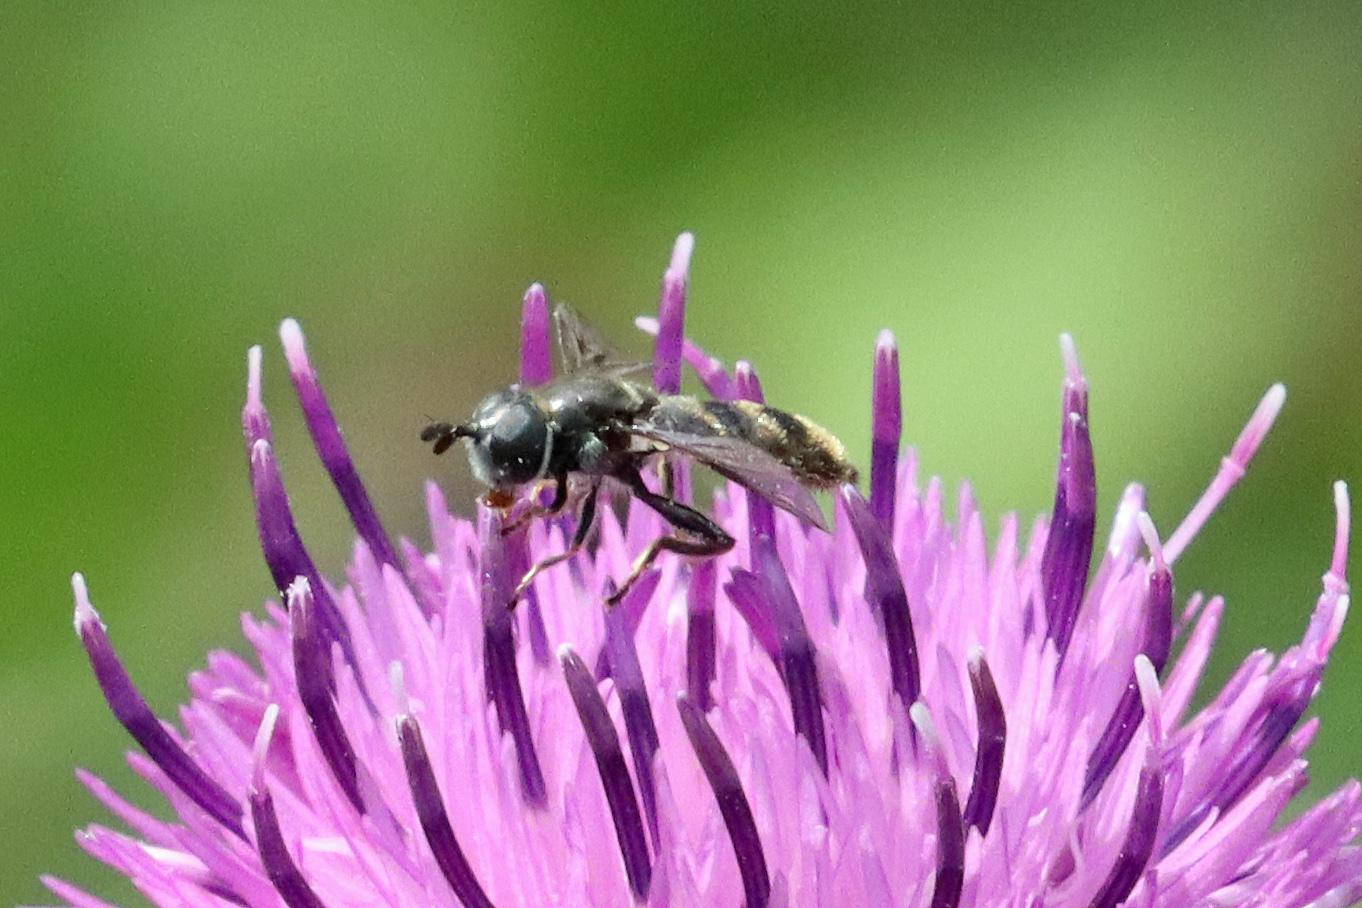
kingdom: Animalia
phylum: Arthropoda
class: Insecta
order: Diptera
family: Syrphidae
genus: Pipiza
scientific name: Pipiza
